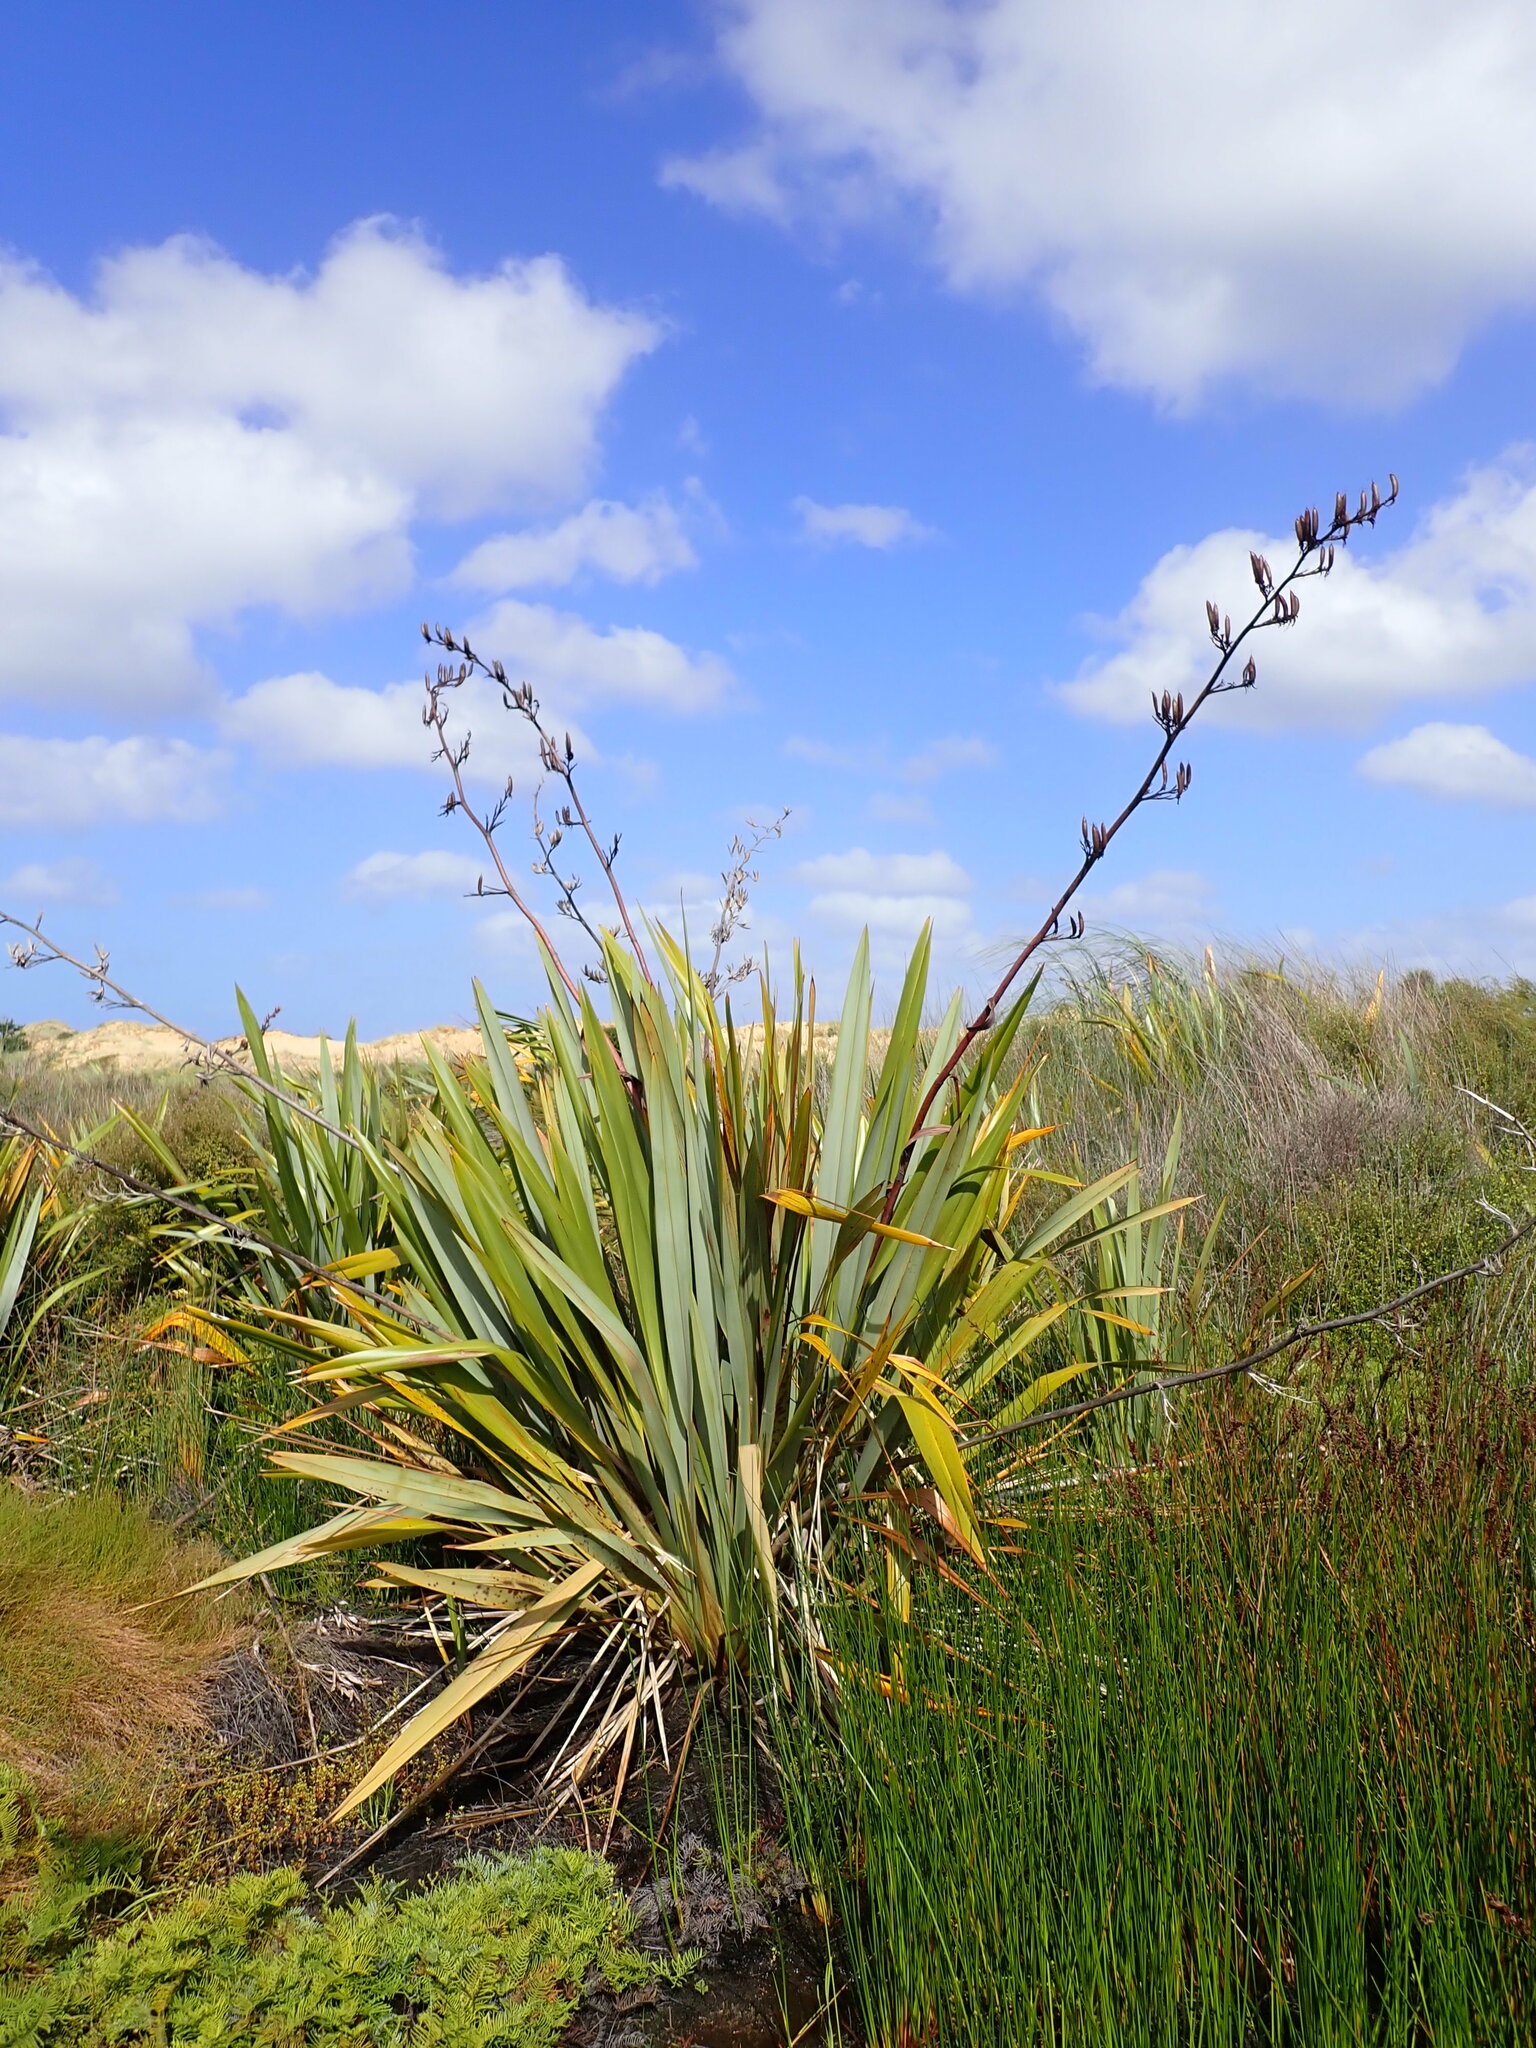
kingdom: Plantae
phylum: Tracheophyta
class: Liliopsida
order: Asparagales
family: Asphodelaceae
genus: Phormium
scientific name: Phormium tenax
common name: New zealand flax
